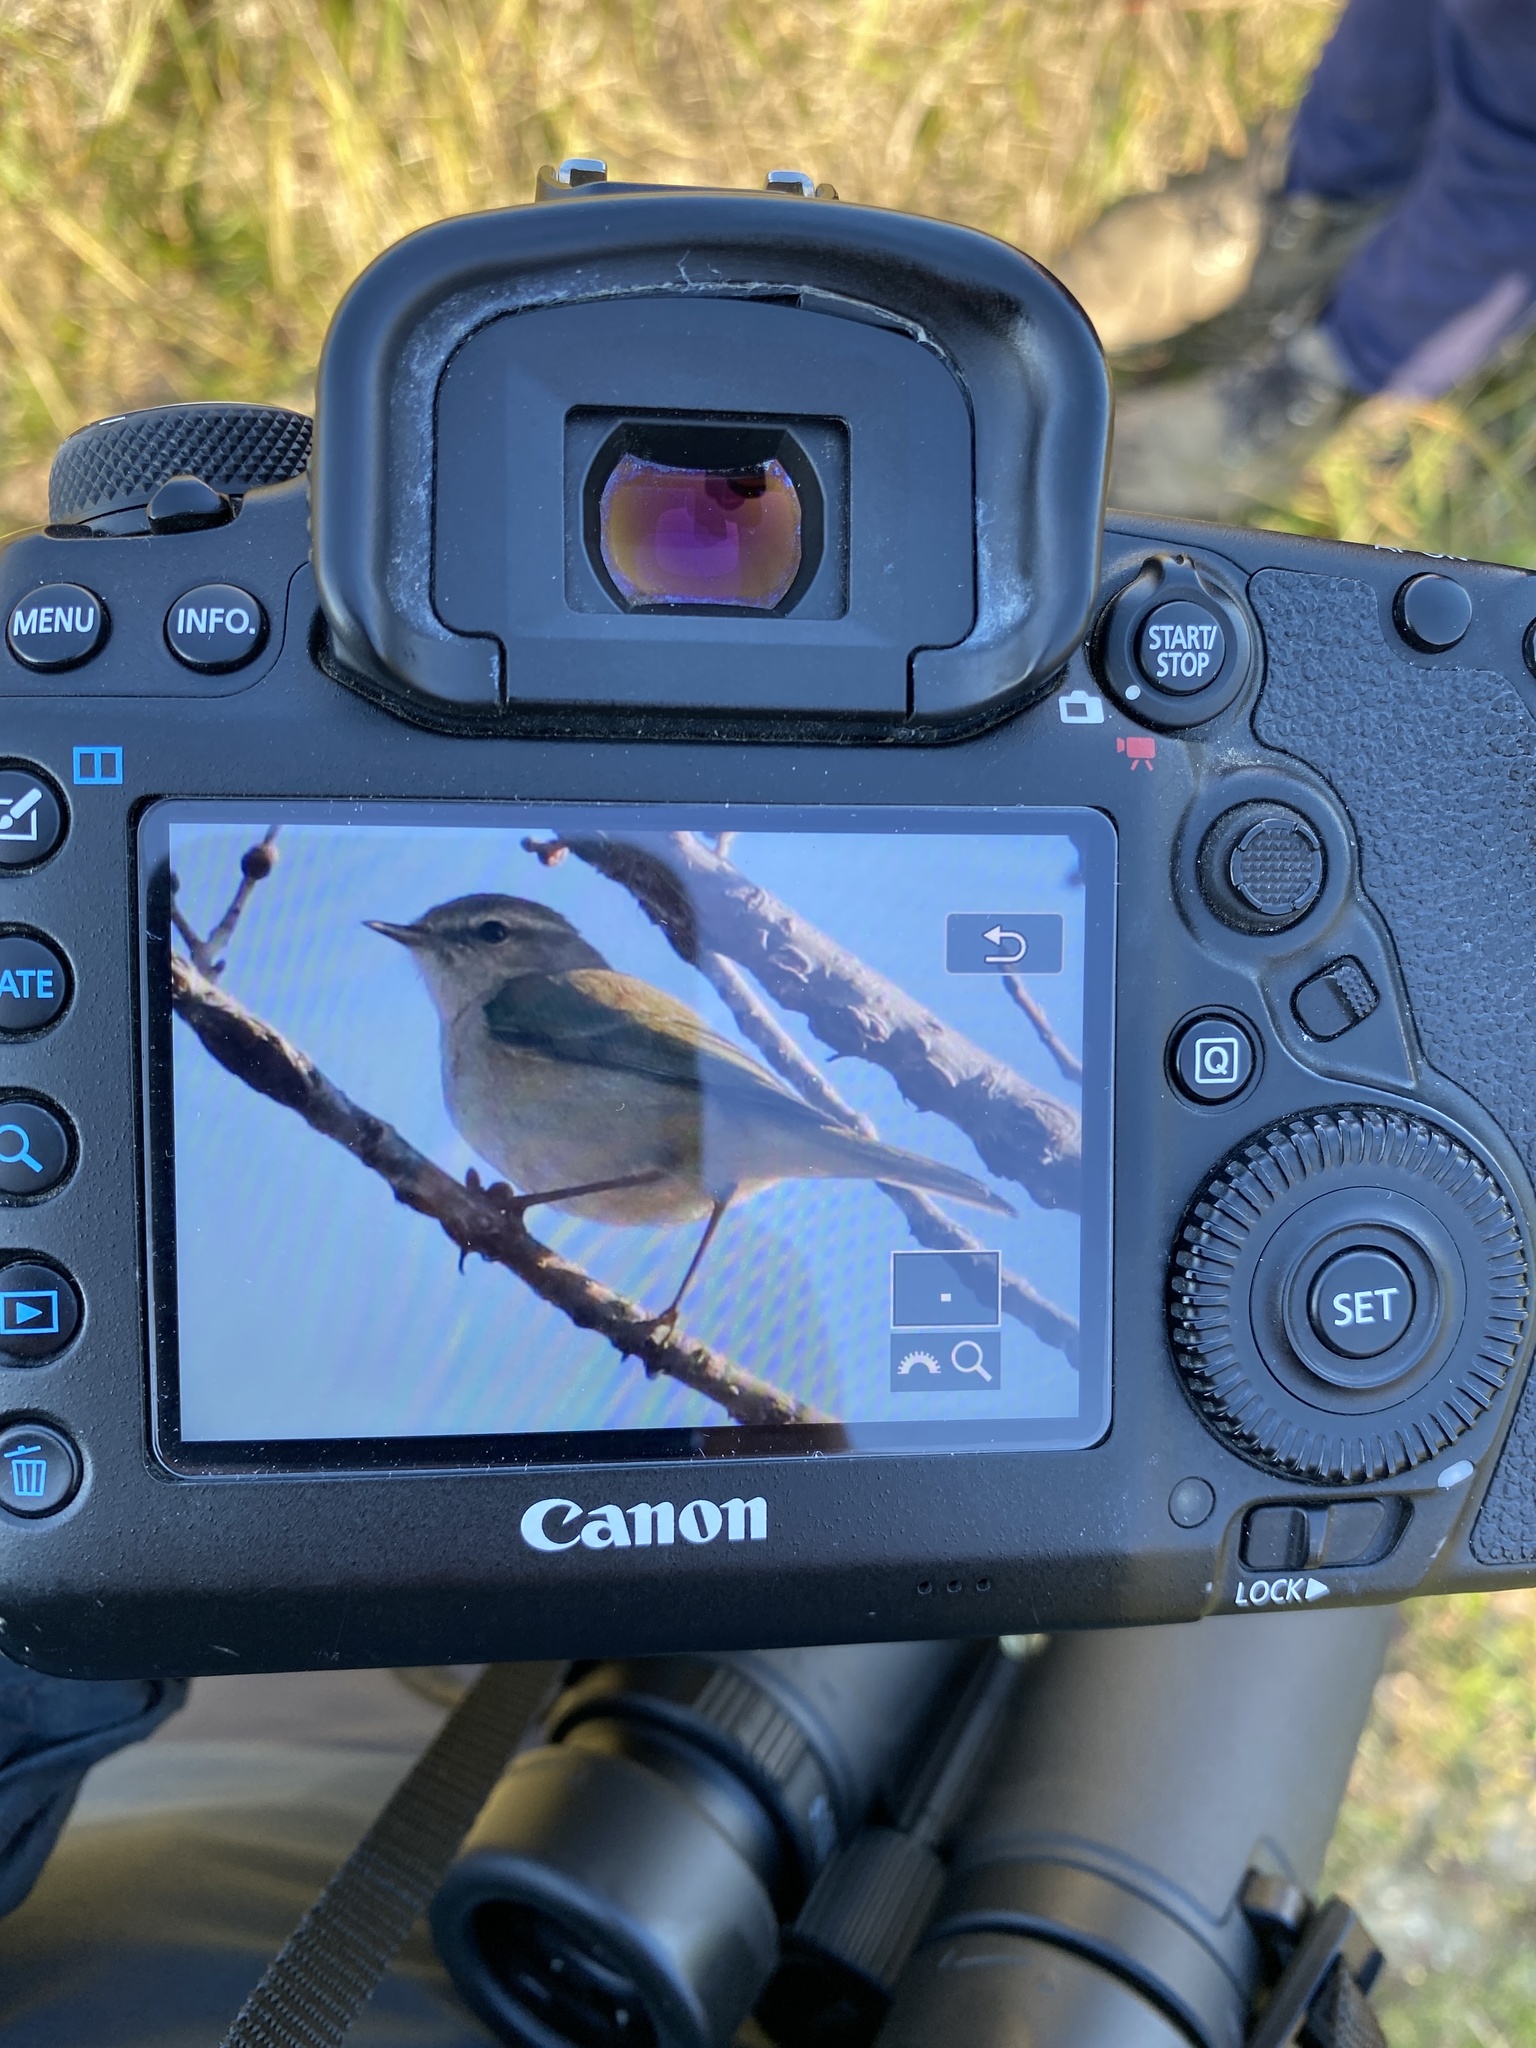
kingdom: Animalia
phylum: Chordata
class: Aves
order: Passeriformes
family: Phylloscopidae
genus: Phylloscopus
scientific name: Phylloscopus collybita
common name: Common chiffchaff
